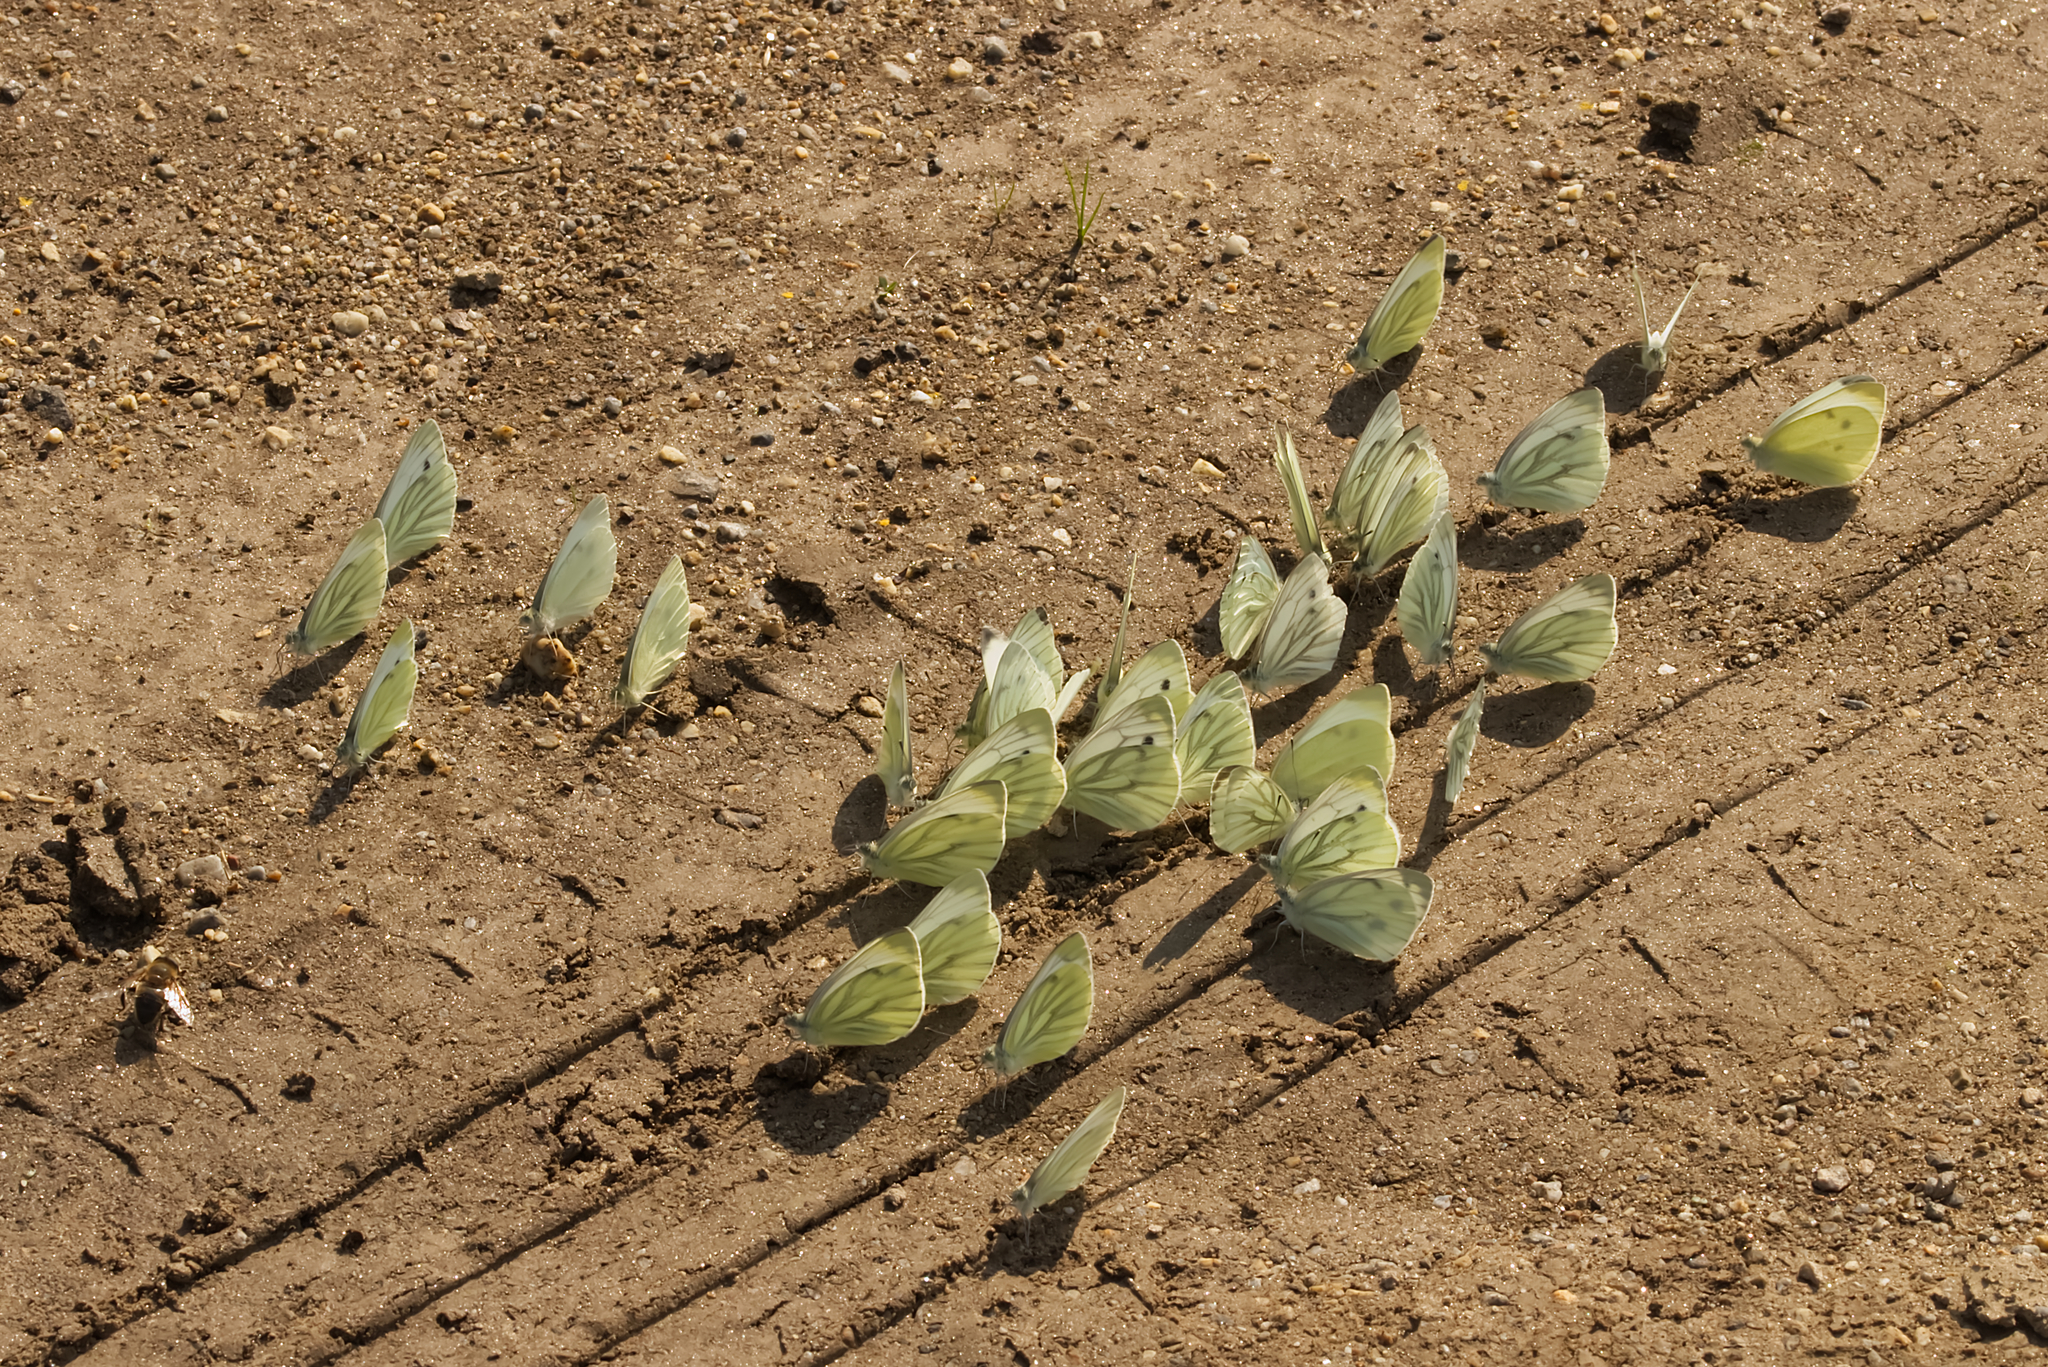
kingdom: Animalia
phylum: Arthropoda
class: Insecta
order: Lepidoptera
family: Pieridae
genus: Pieris
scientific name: Pieris napi
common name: Green-veined white
